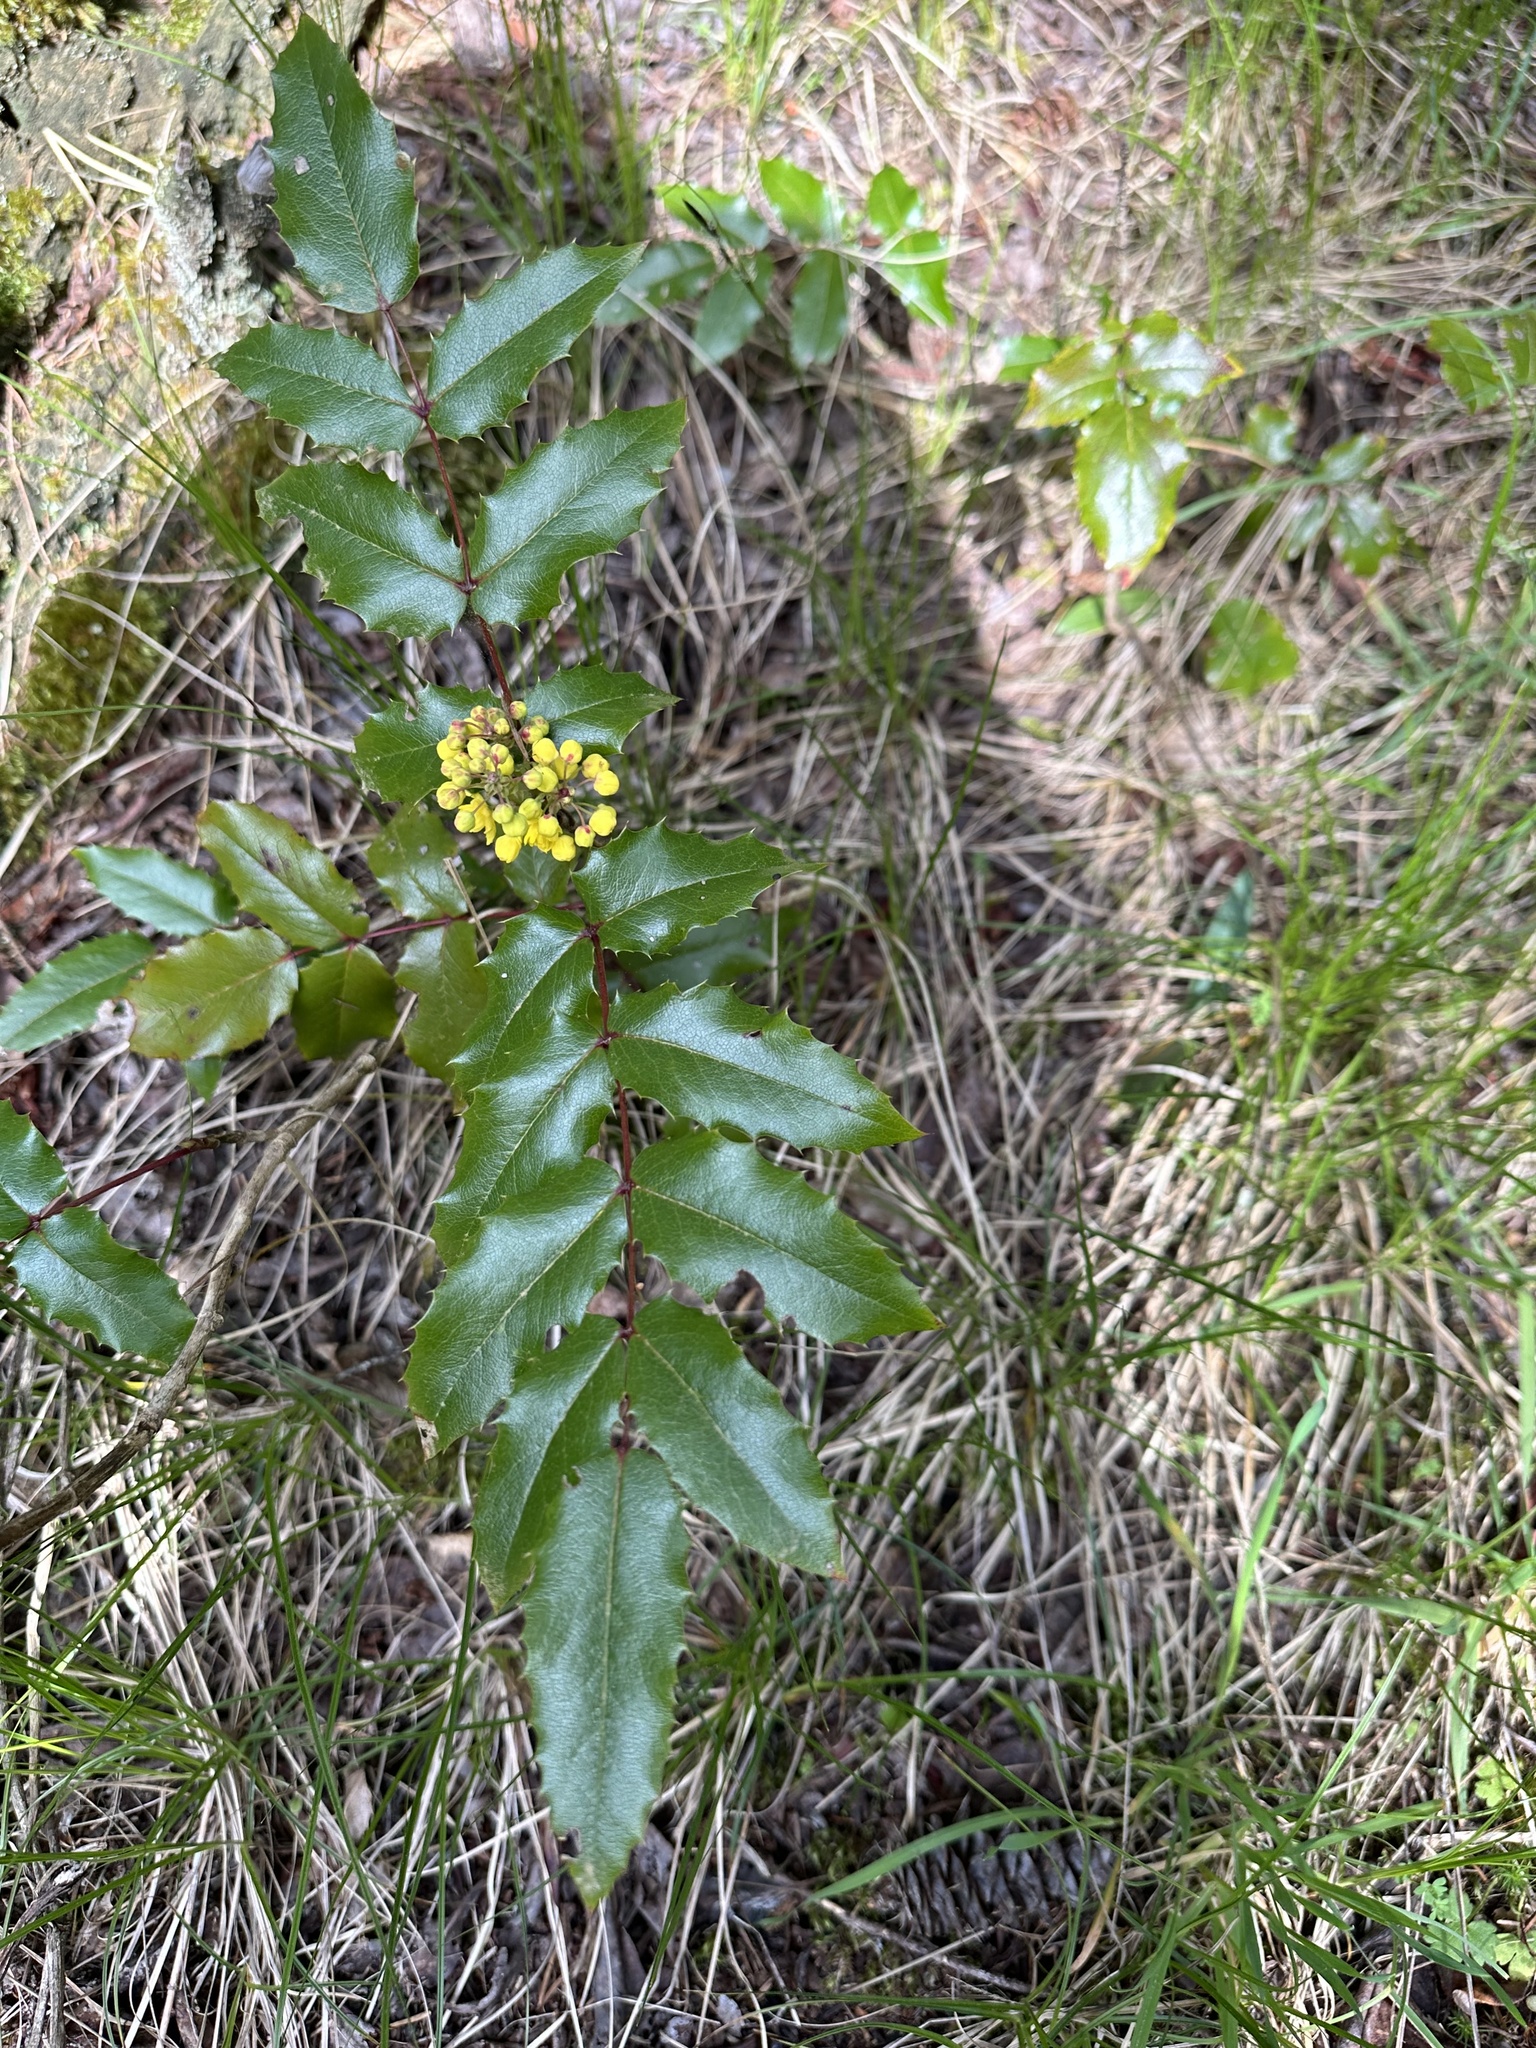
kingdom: Plantae
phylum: Tracheophyta
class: Magnoliopsida
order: Ranunculales
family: Berberidaceae
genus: Mahonia
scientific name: Mahonia aquifolium
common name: Oregon-grape
